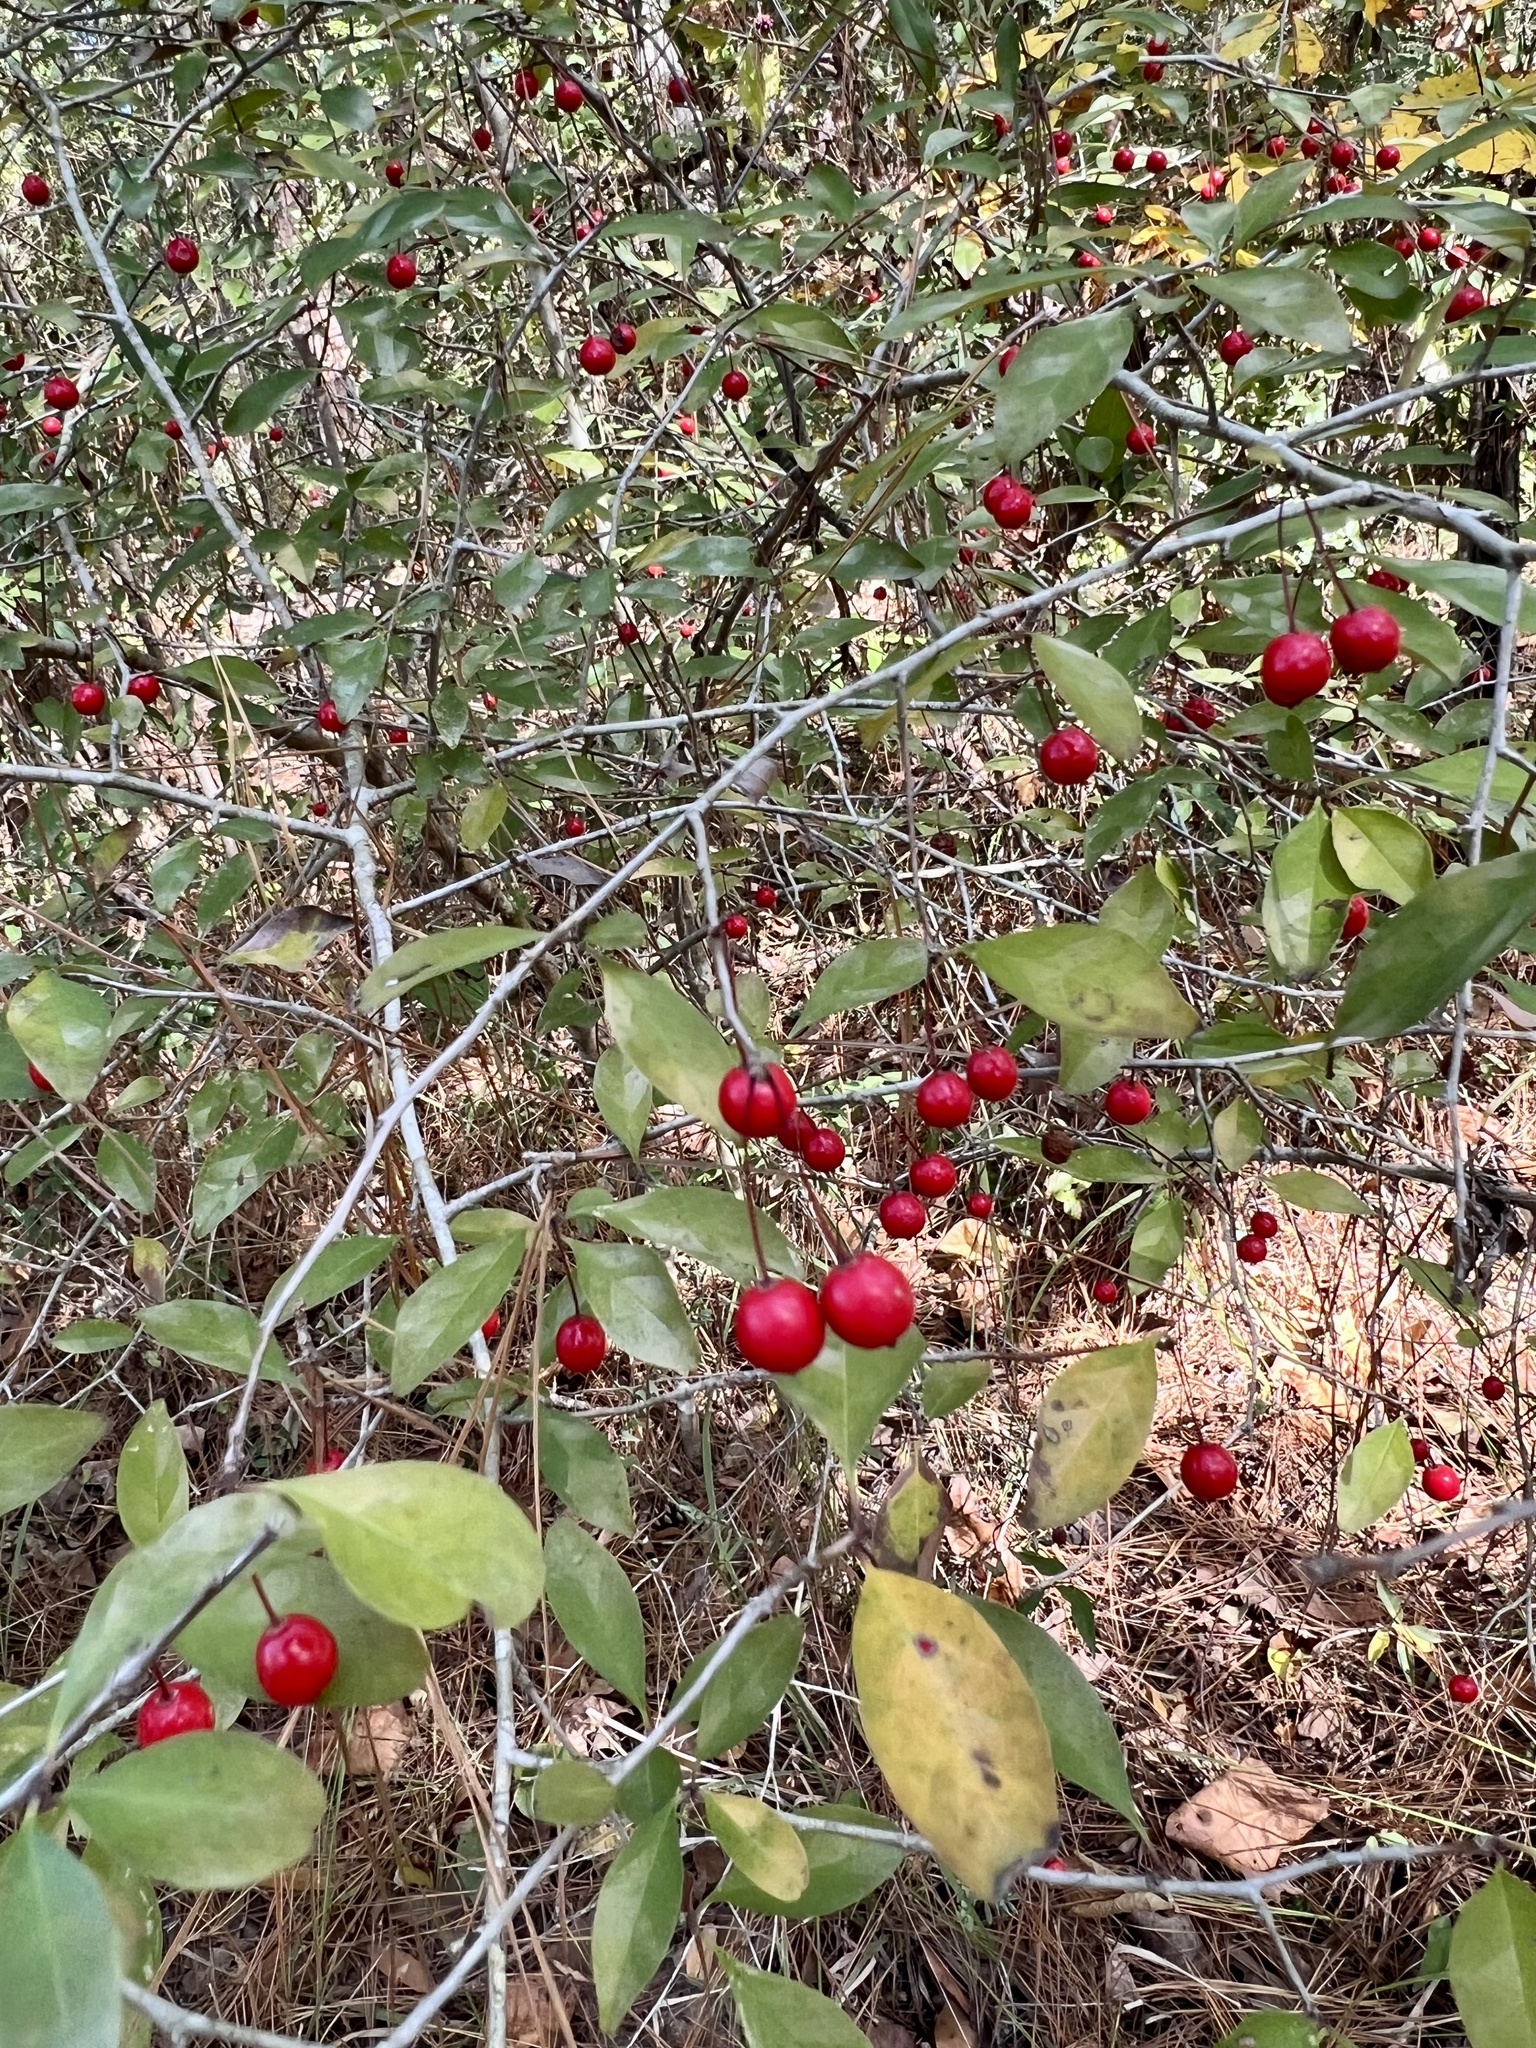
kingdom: Plantae
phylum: Tracheophyta
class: Magnoliopsida
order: Aquifoliales
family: Aquifoliaceae
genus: Ilex
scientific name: Ilex longipes
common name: Georgia holly
